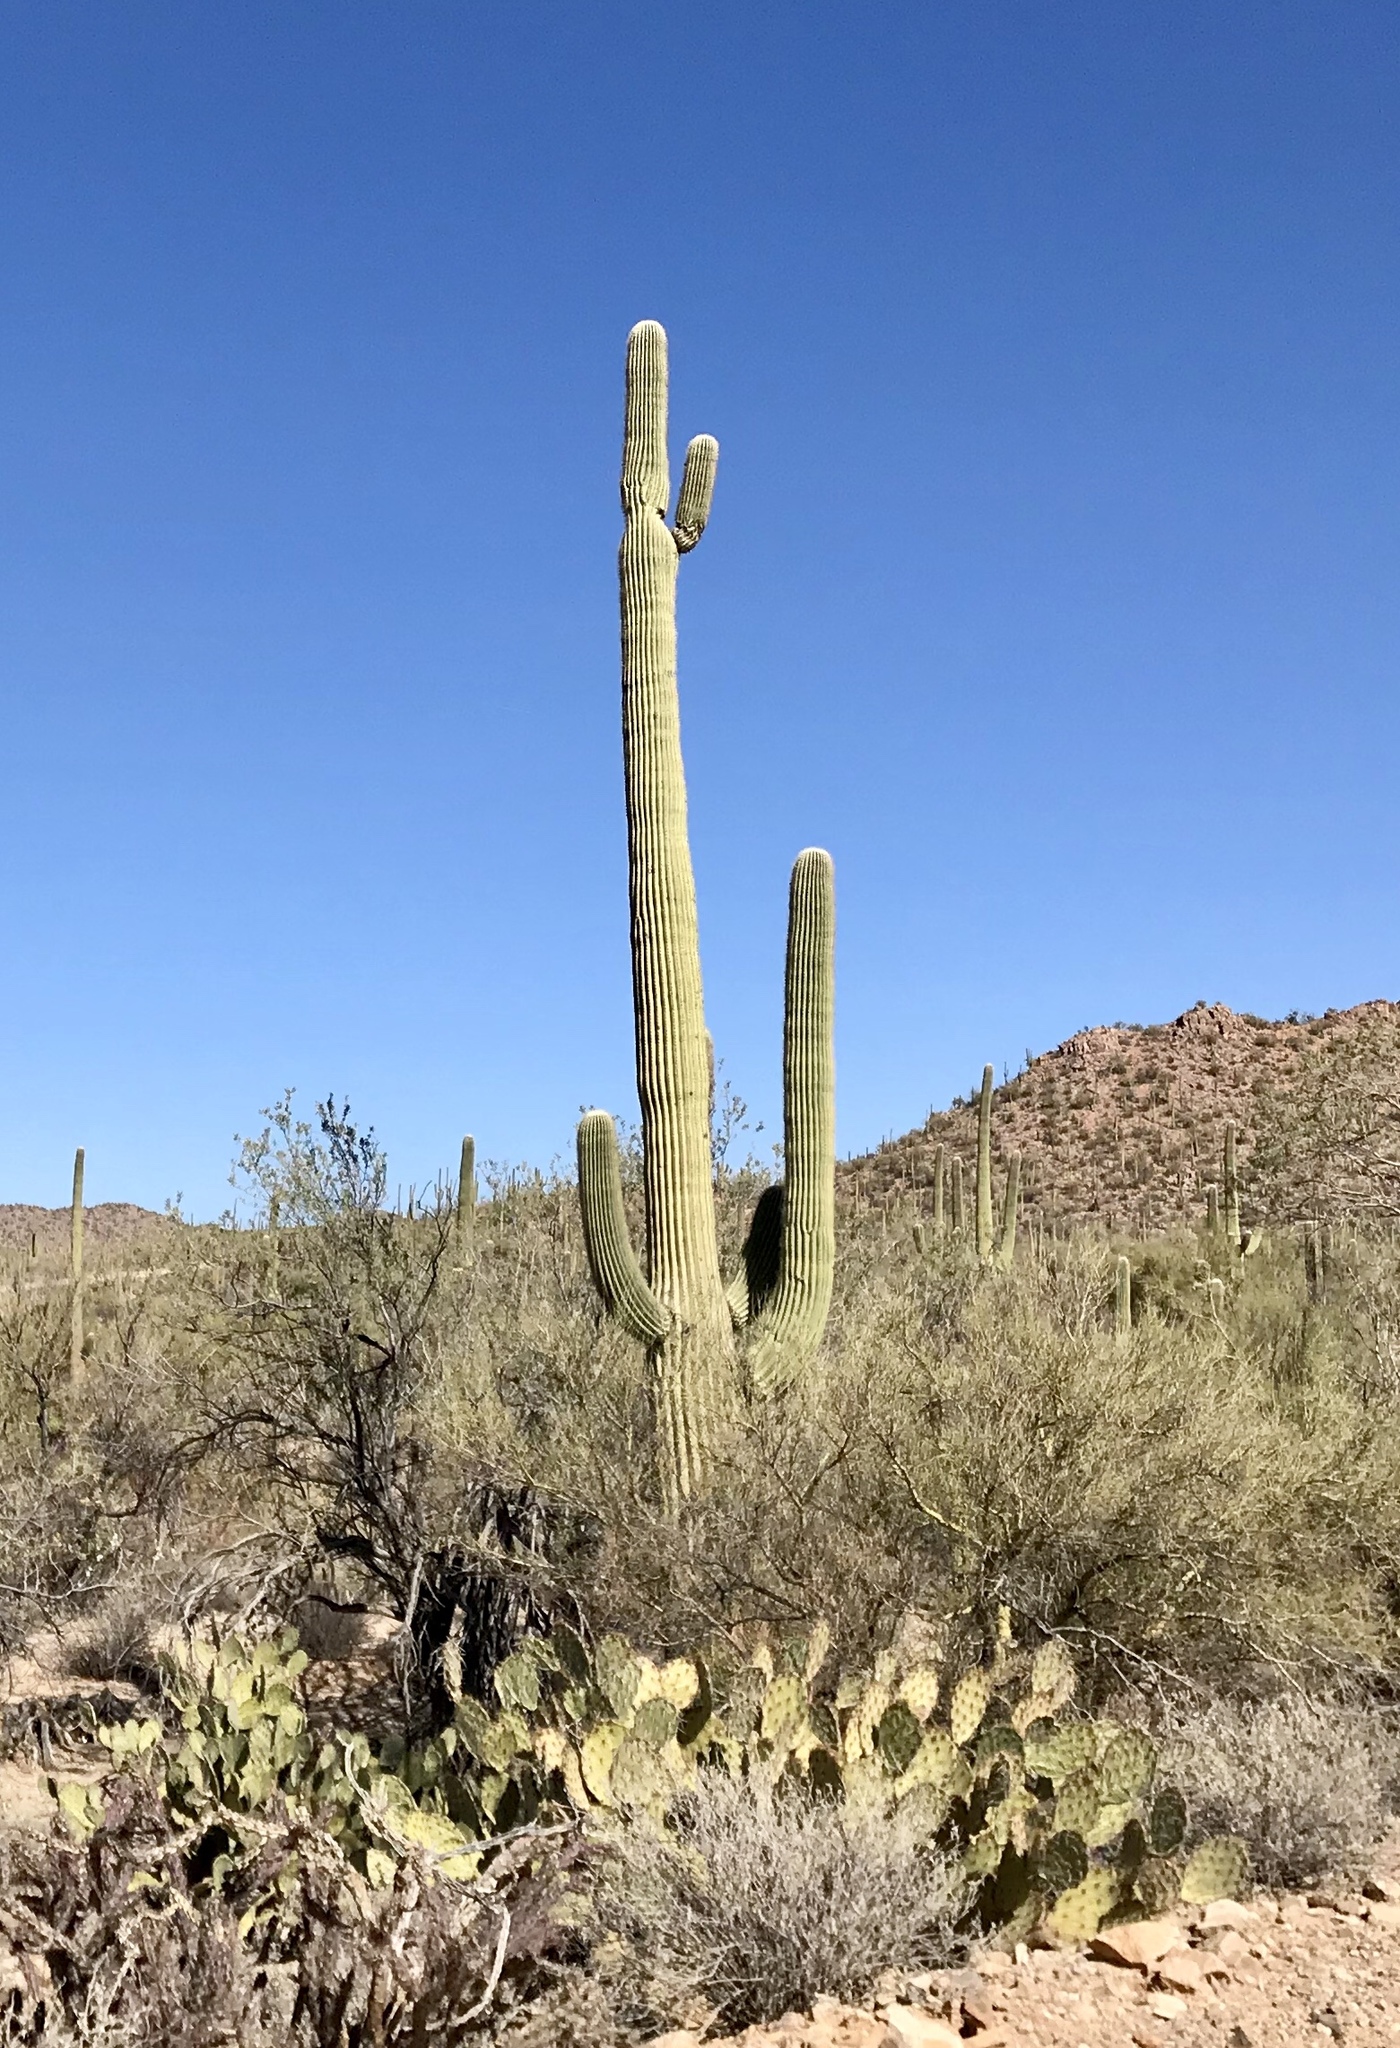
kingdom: Plantae
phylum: Tracheophyta
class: Magnoliopsida
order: Caryophyllales
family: Cactaceae
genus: Carnegiea
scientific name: Carnegiea gigantea
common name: Saguaro
